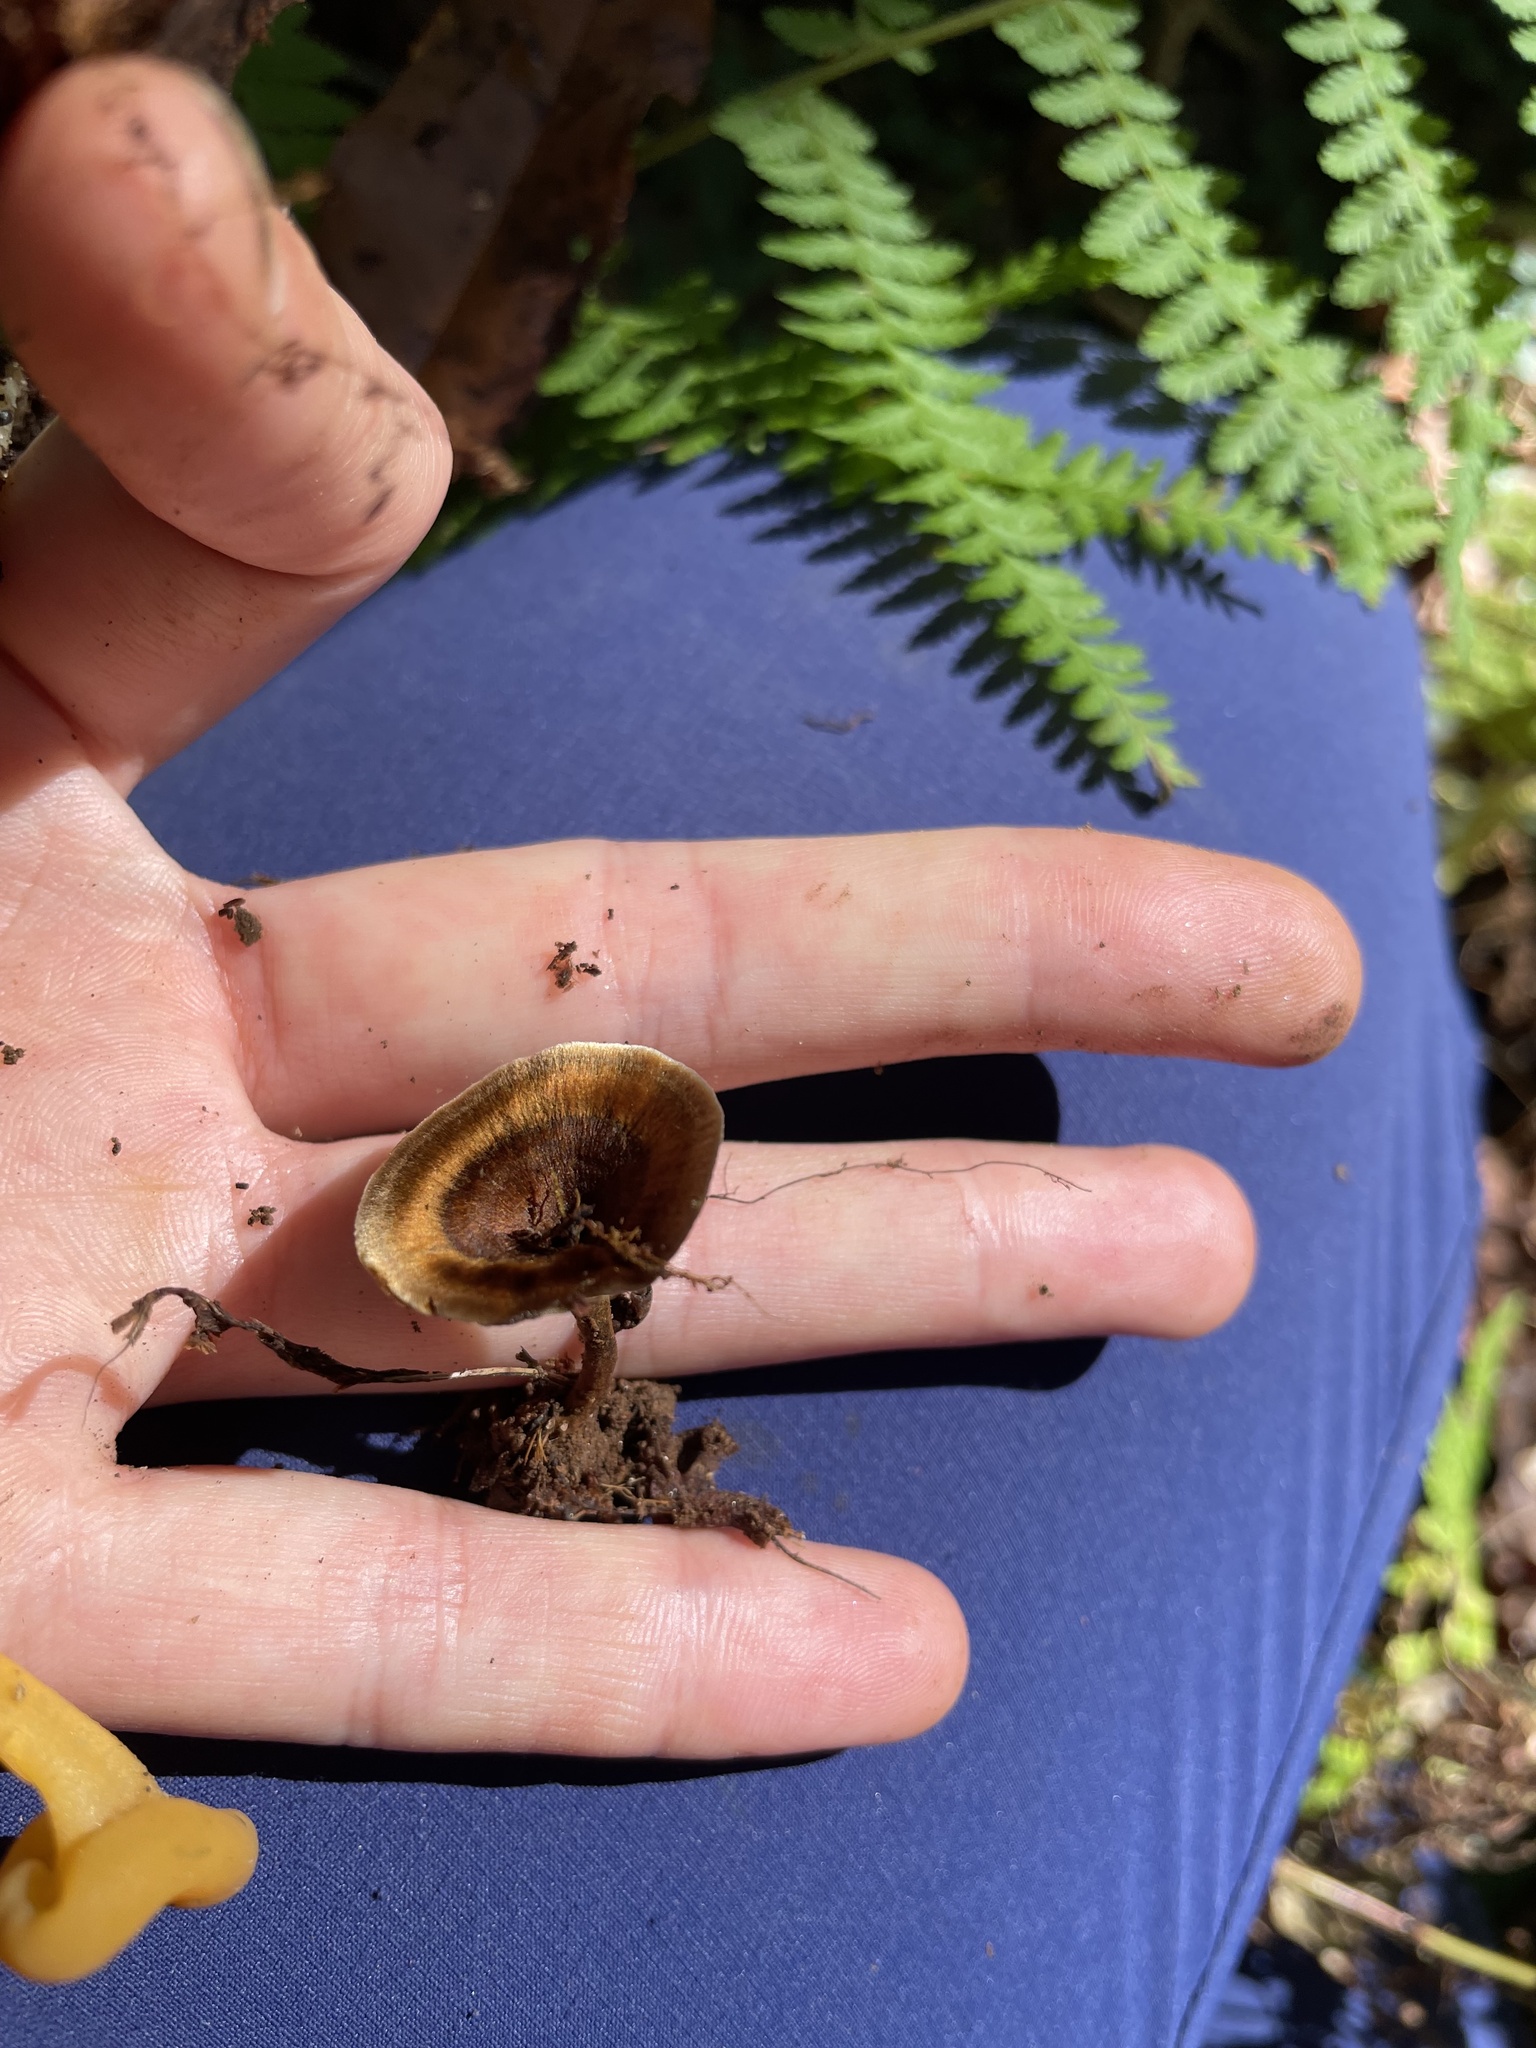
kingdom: Fungi
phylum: Basidiomycota
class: Agaricomycetes
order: Hymenochaetales
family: Hymenochaetaceae
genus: Coltricia
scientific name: Coltricia cinnamomea
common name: Shiny cinnamon polypore
